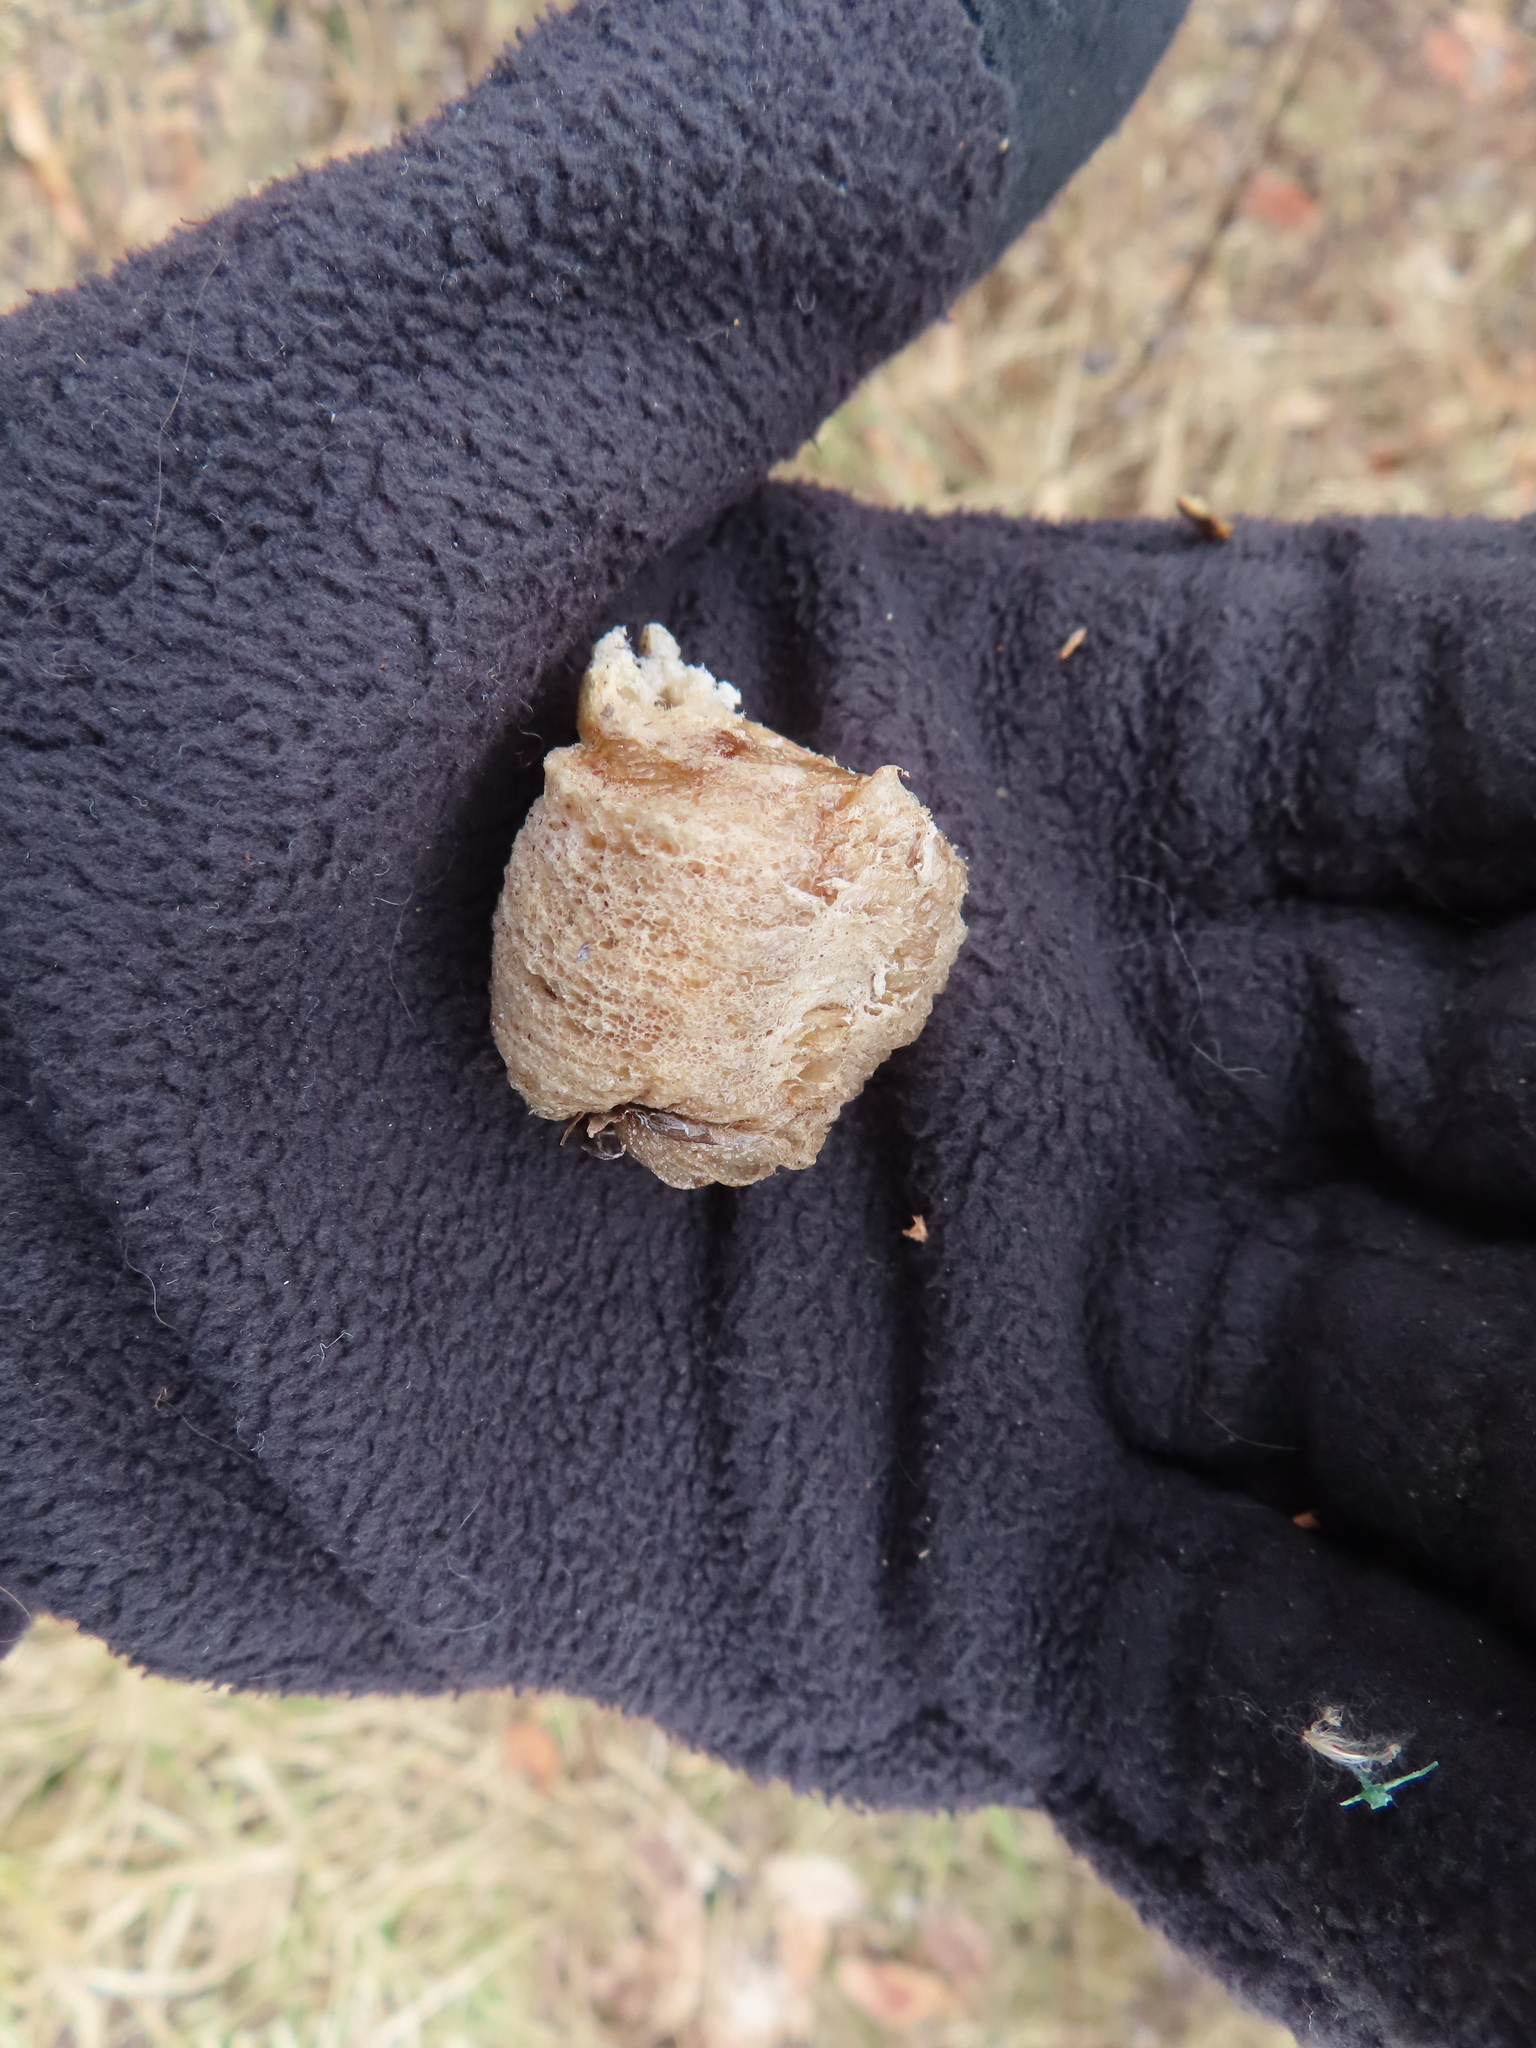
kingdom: Animalia
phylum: Arthropoda
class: Insecta
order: Mantodea
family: Mantidae
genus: Tenodera
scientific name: Tenodera sinensis
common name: Chinese mantis
